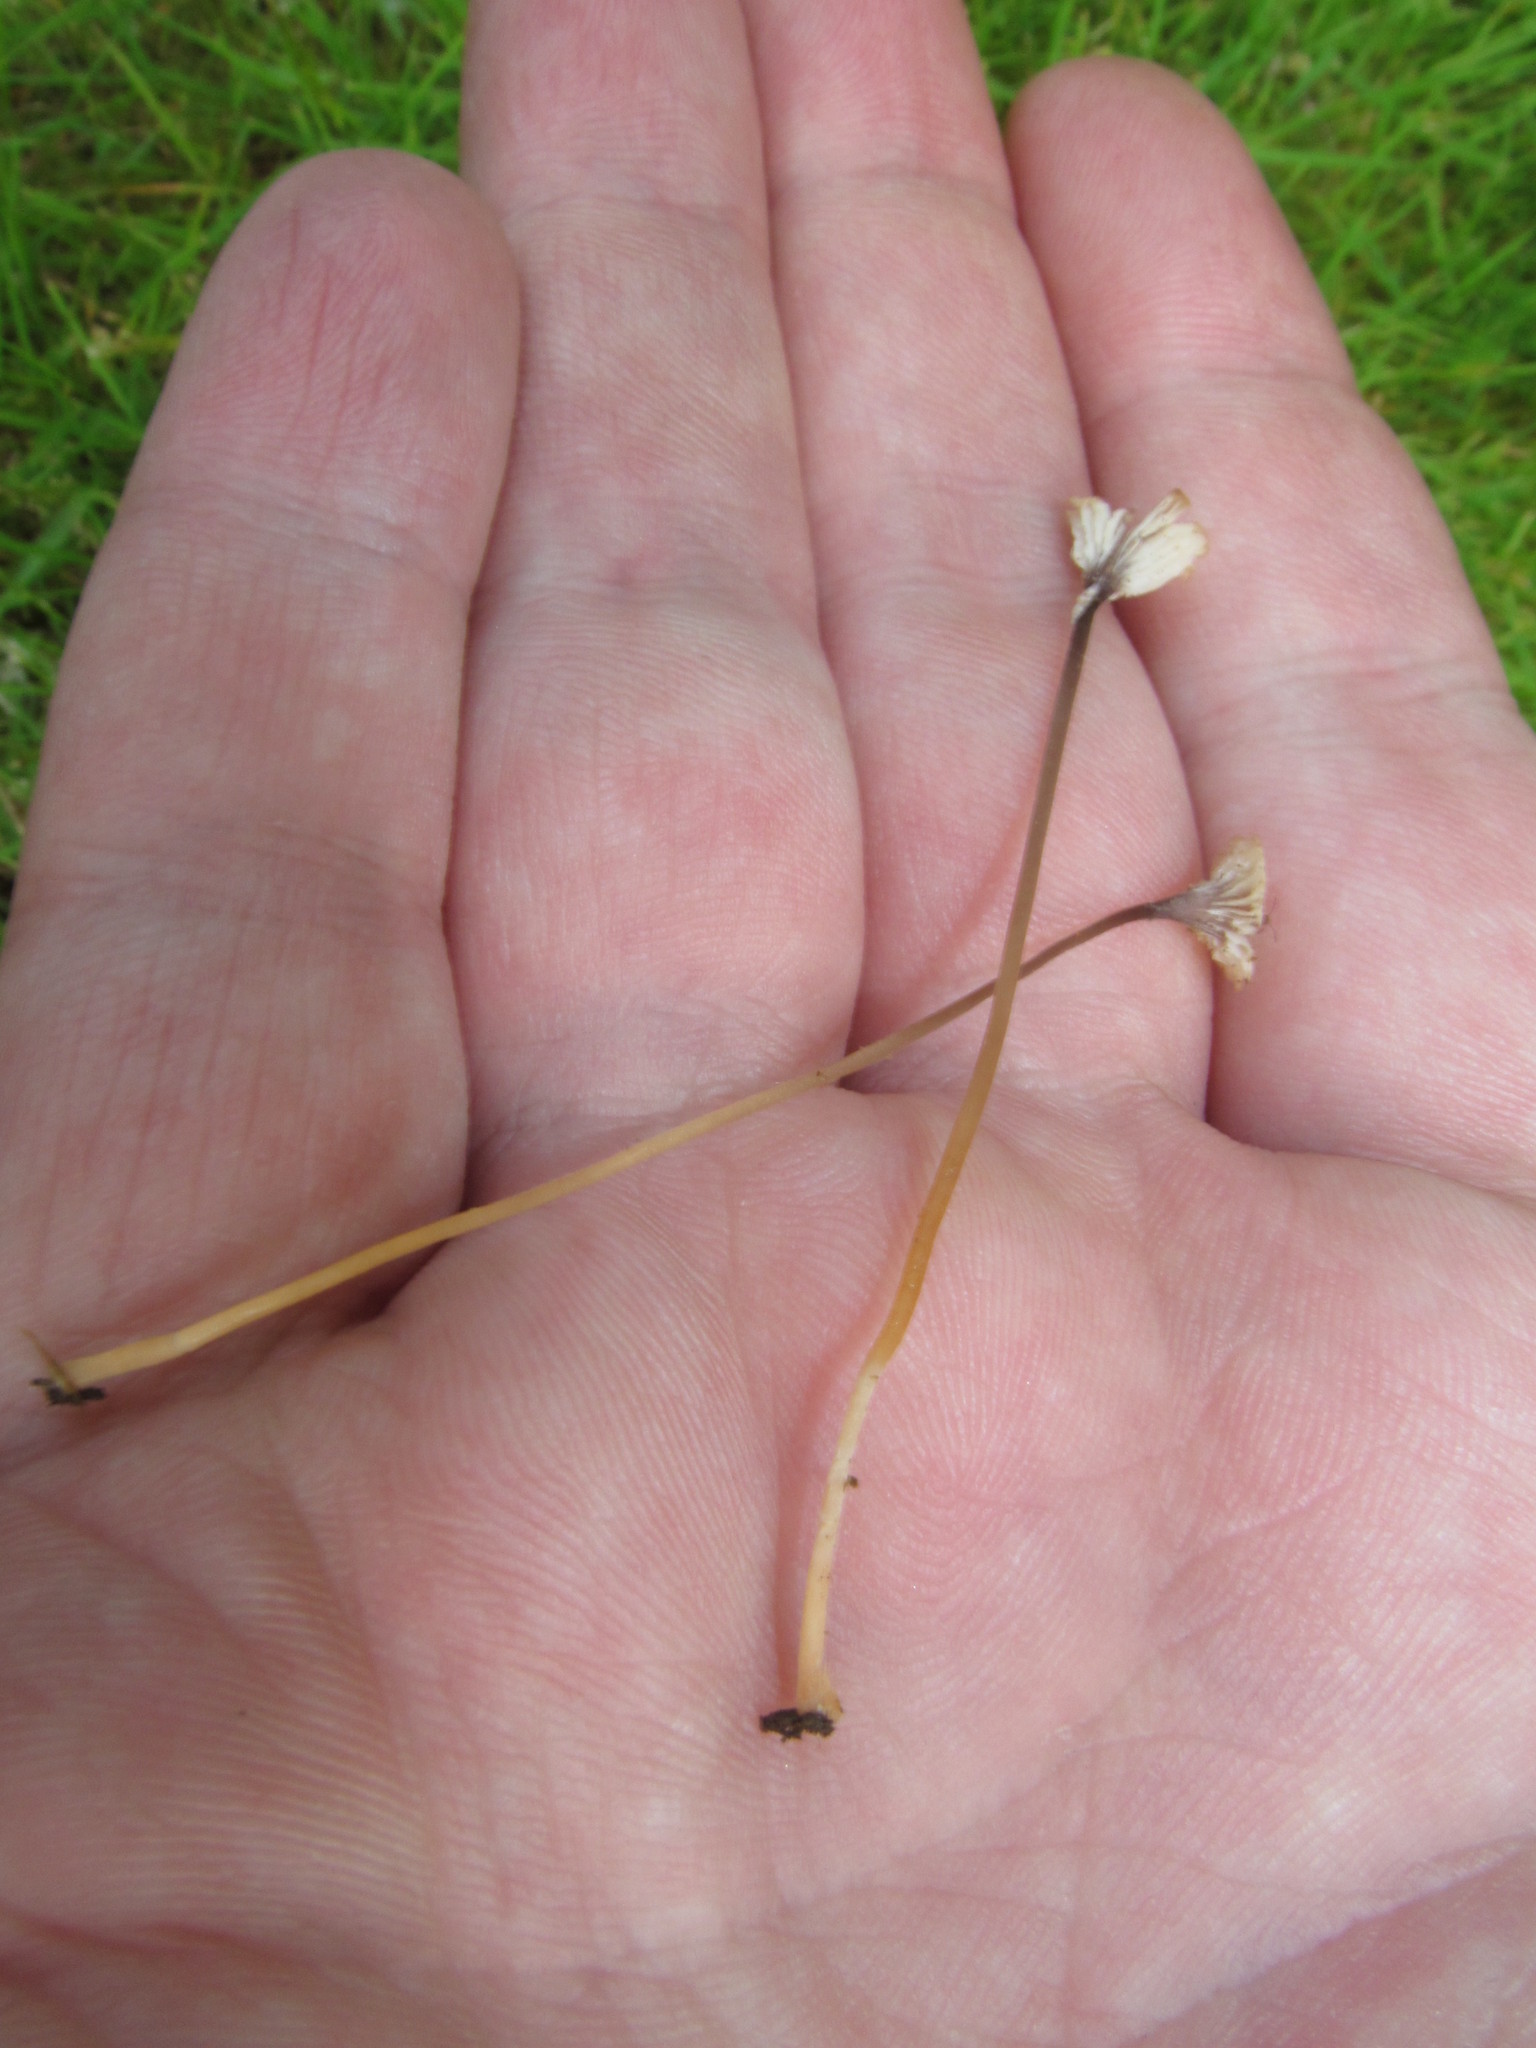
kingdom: Fungi
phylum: Basidiomycota
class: Agaricomycetes
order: Hymenochaetales
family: Rickenellaceae
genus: Rickenella
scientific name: Rickenella swartzii
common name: Collared mosscap
